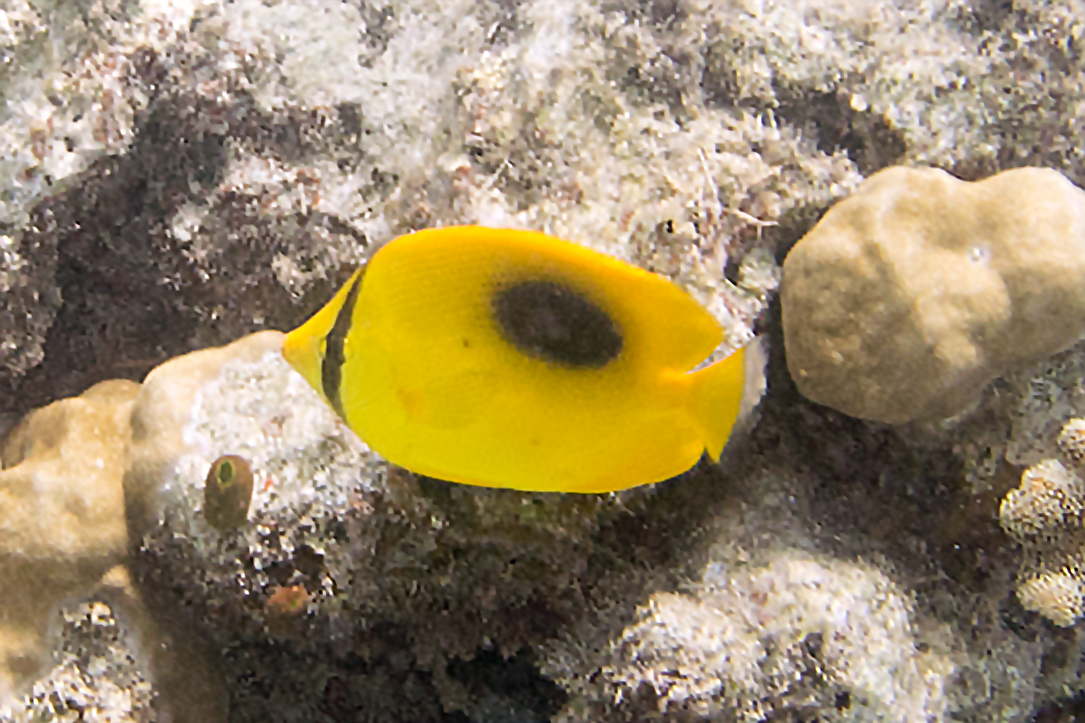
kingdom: Animalia
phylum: Chordata
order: Perciformes
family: Chaetodontidae
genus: Chaetodon
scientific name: Chaetodon speculum
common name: Mirror butterflyfish
